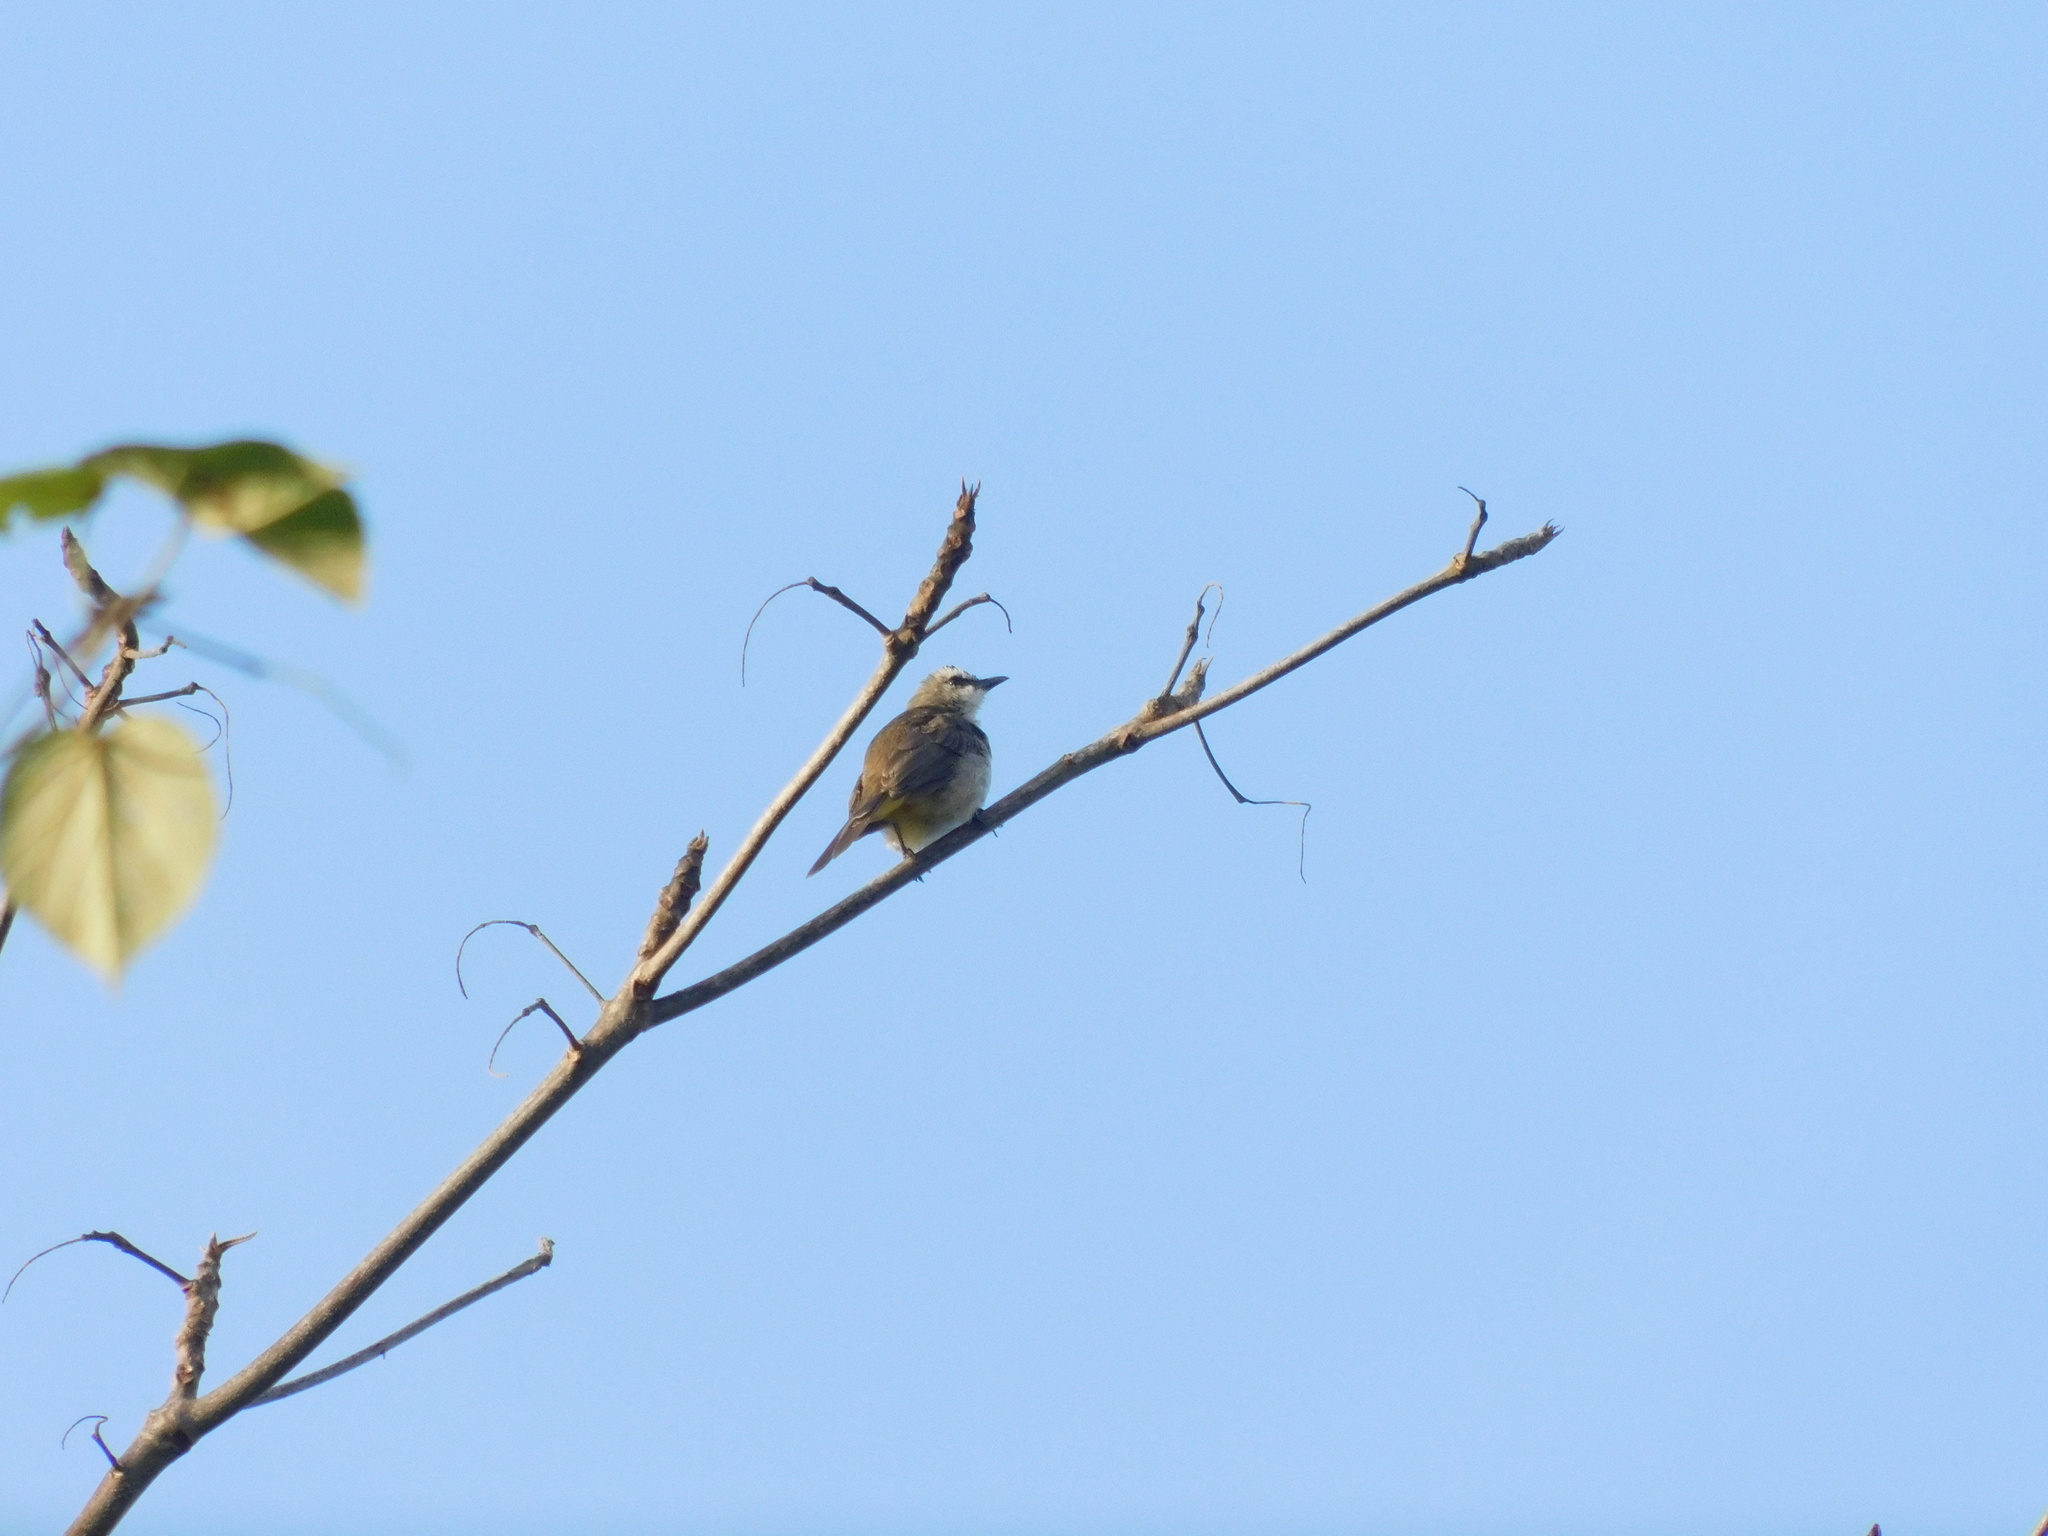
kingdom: Animalia
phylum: Chordata
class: Aves
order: Passeriformes
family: Pycnonotidae
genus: Pycnonotus
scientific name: Pycnonotus goiavier
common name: Yellow-vented bulbul
